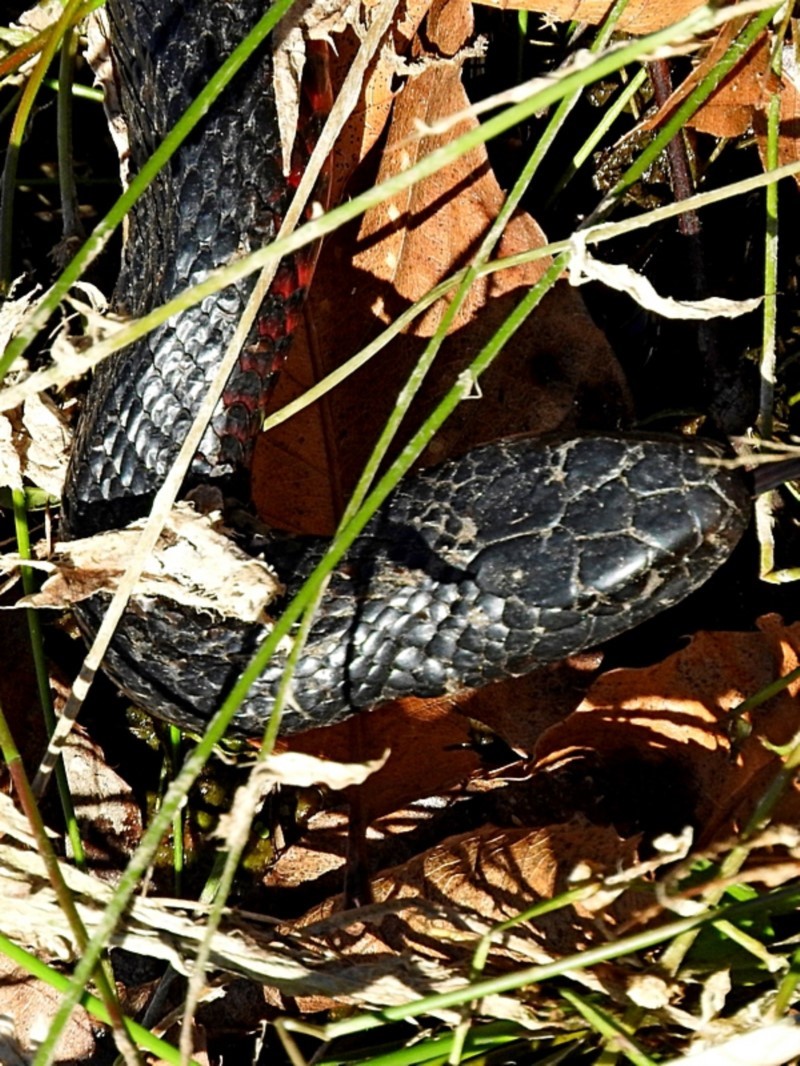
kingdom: Animalia
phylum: Chordata
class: Squamata
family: Elapidae
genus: Pseudechis
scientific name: Pseudechis porphyriacus
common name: Australian black snake
